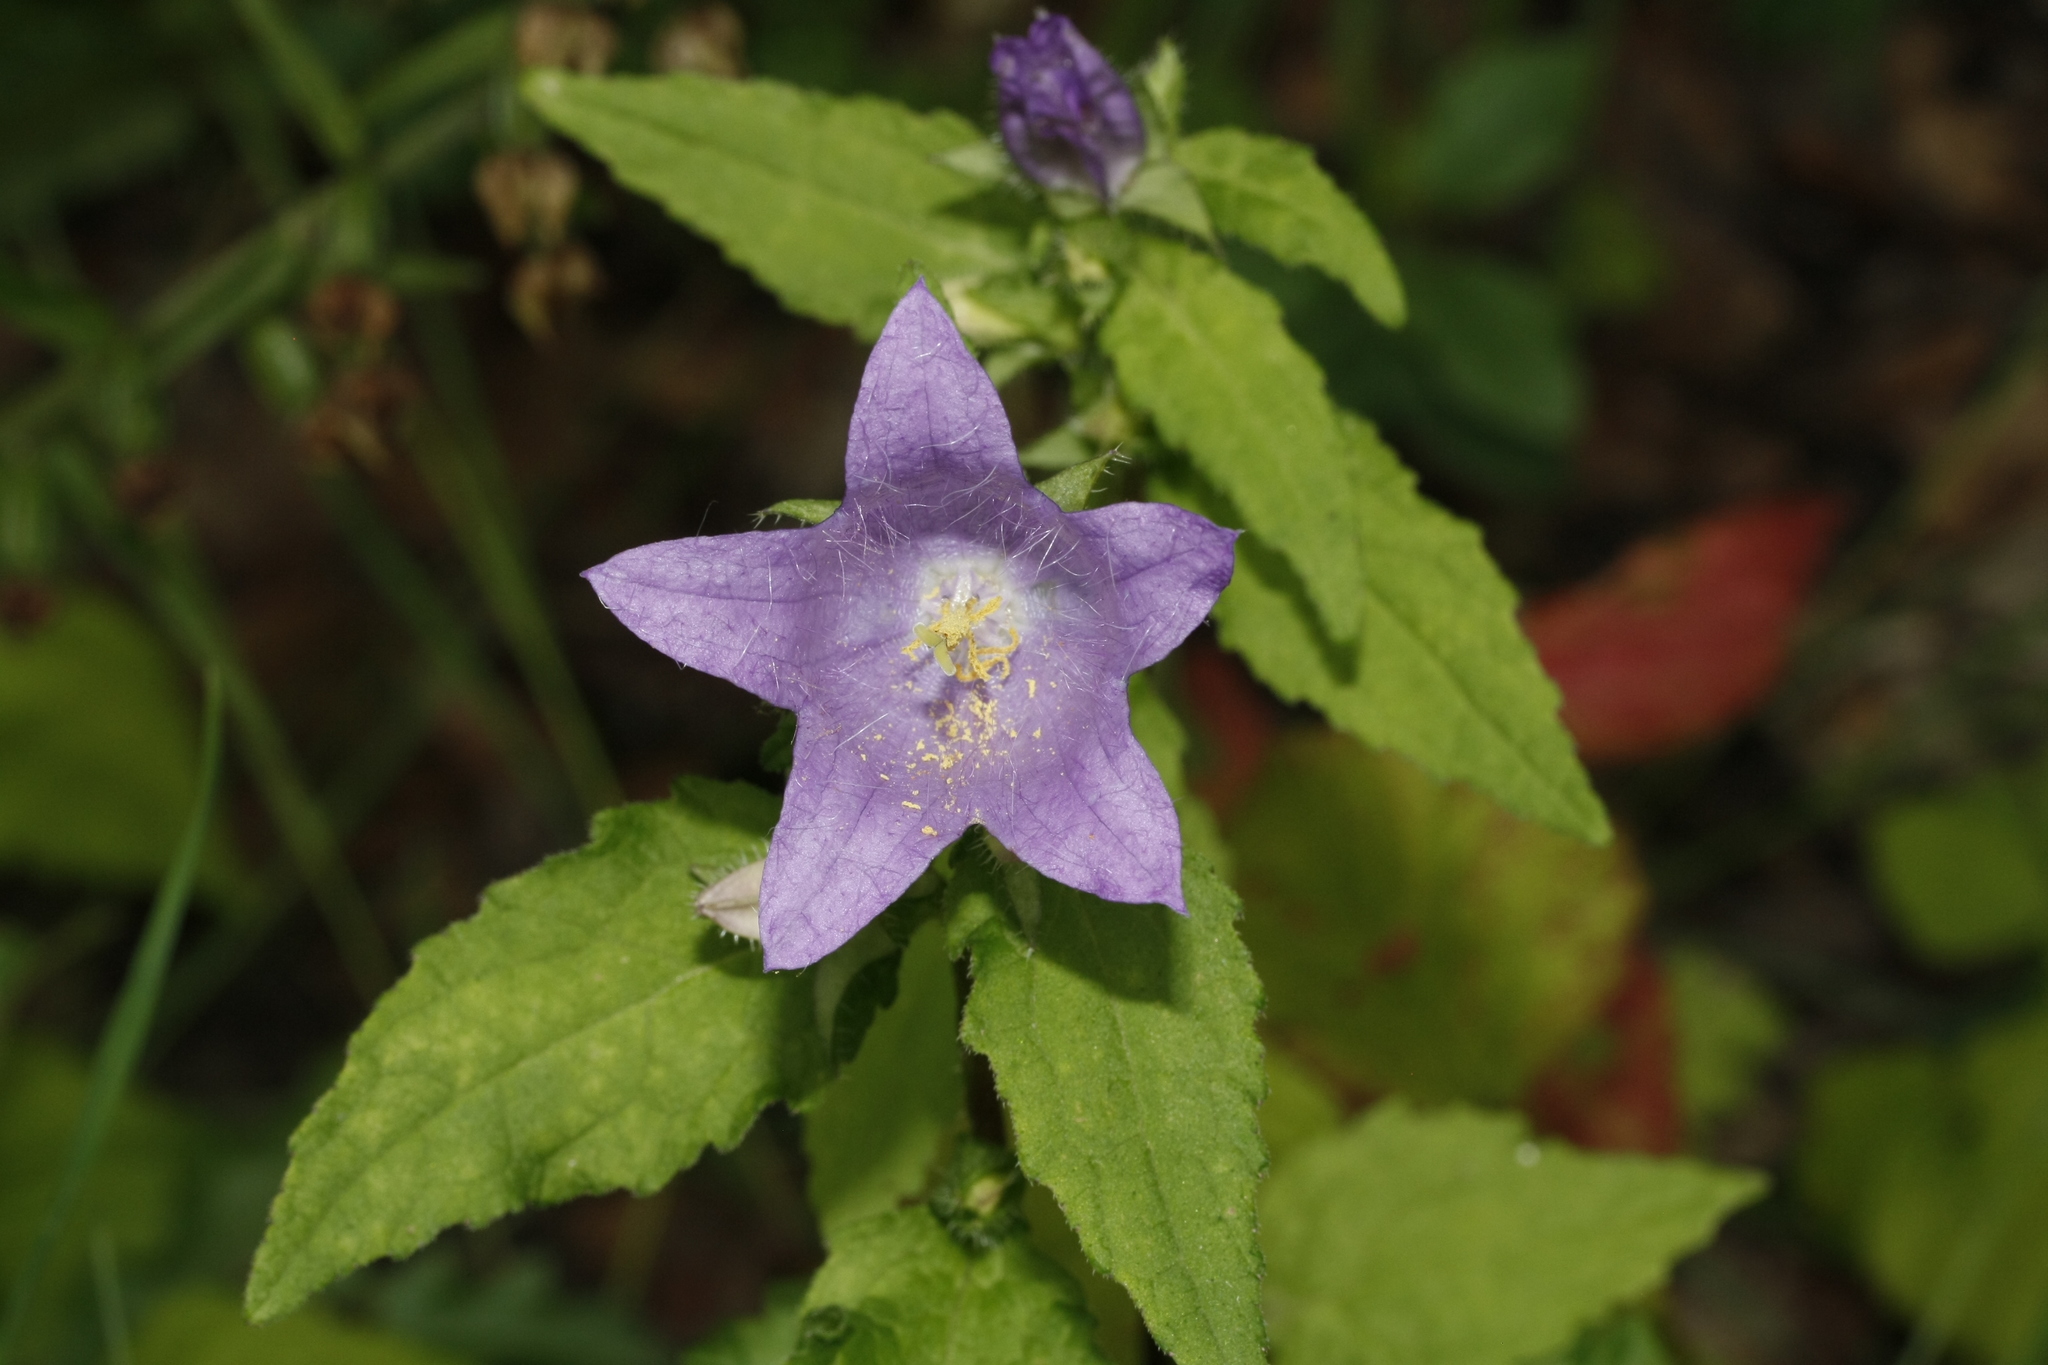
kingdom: Plantae
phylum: Tracheophyta
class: Magnoliopsida
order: Asterales
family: Campanulaceae
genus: Campanula
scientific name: Campanula trachelium
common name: Nettle-leaved bellflower
